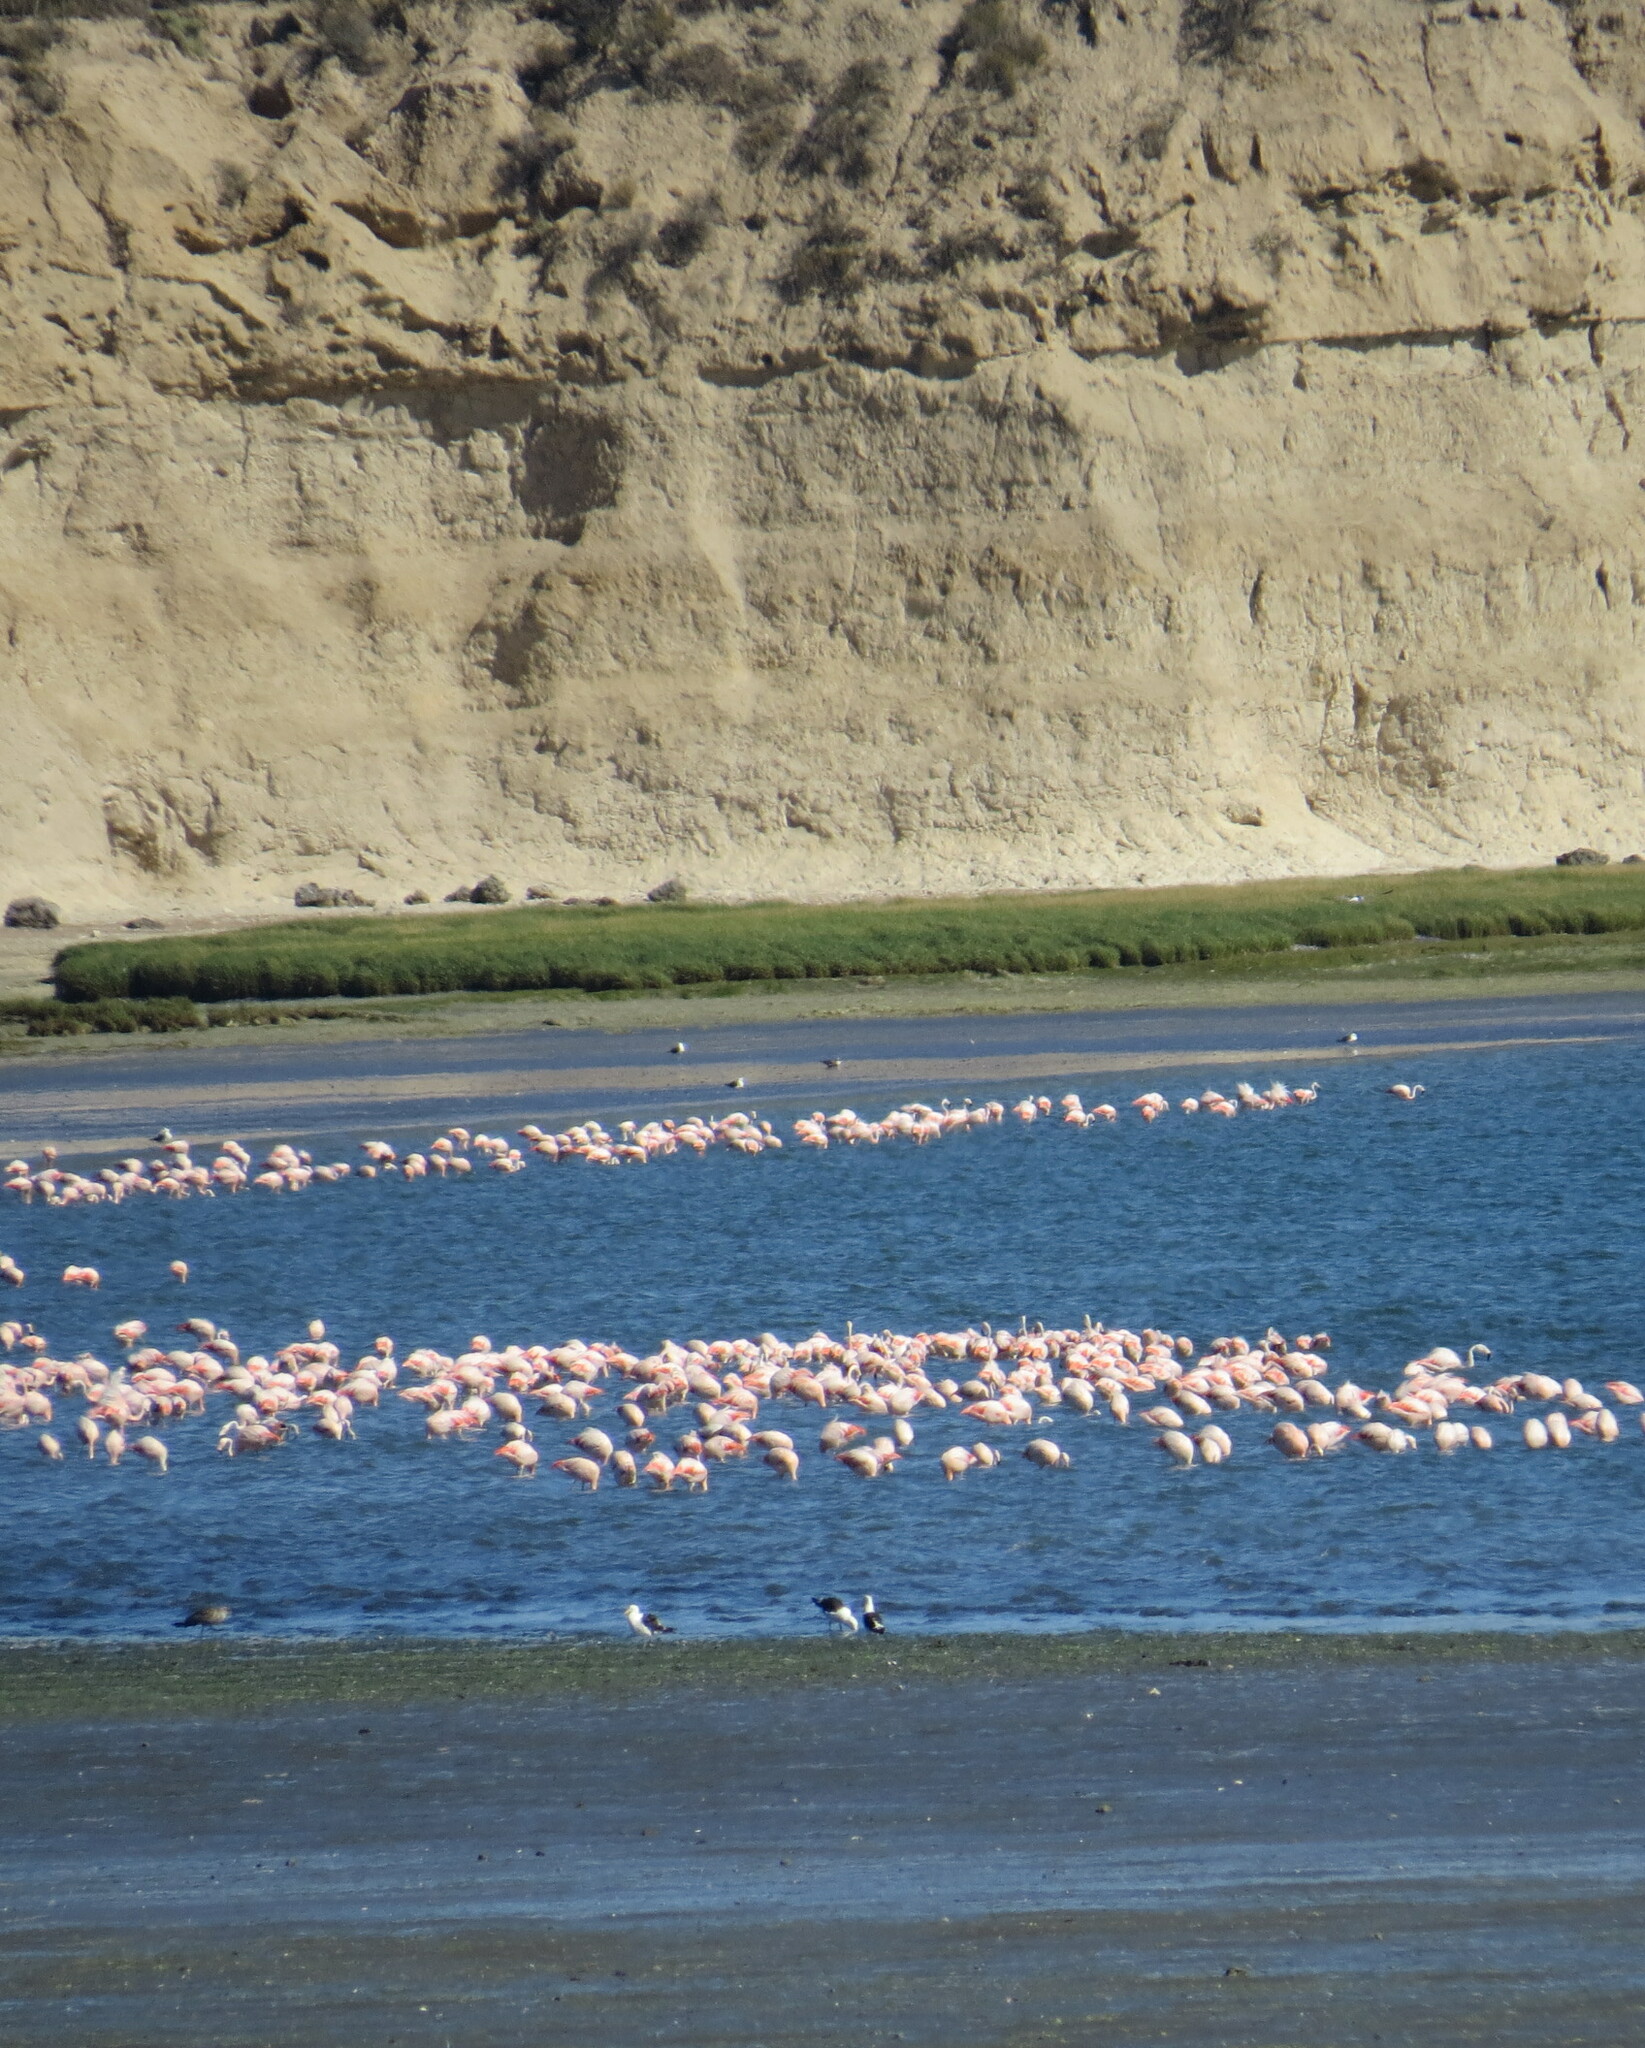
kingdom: Animalia
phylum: Chordata
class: Aves
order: Phoenicopteriformes
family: Phoenicopteridae
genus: Phoenicopterus
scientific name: Phoenicopterus chilensis
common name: Chilean flamingo
